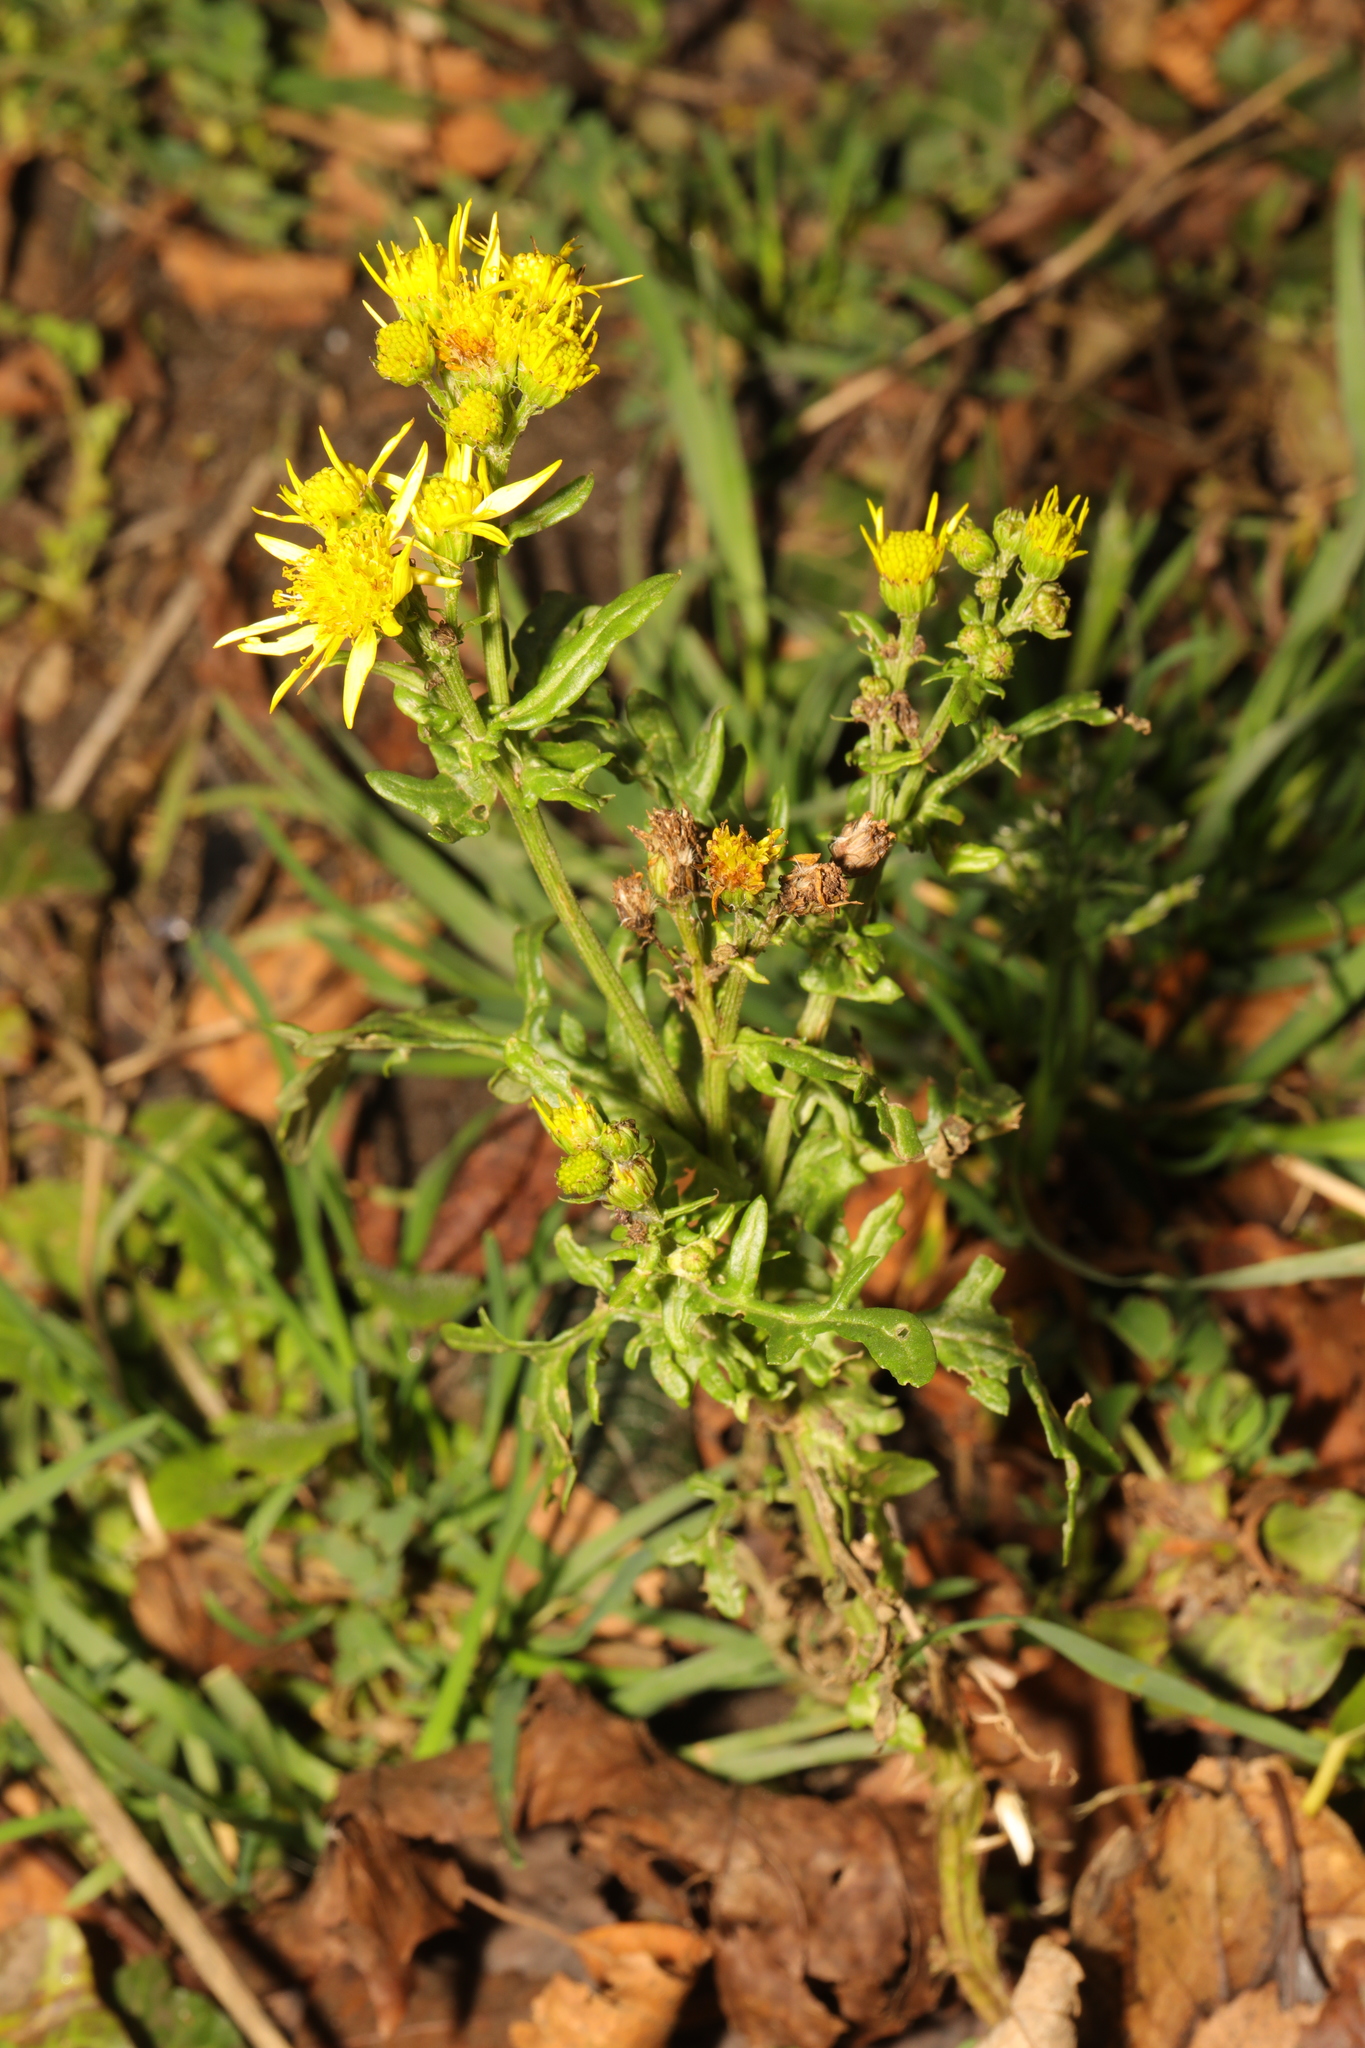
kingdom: Plantae
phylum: Tracheophyta
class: Magnoliopsida
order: Asterales
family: Asteraceae
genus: Senecio
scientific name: Senecio squalidus
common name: Oxford ragwort
